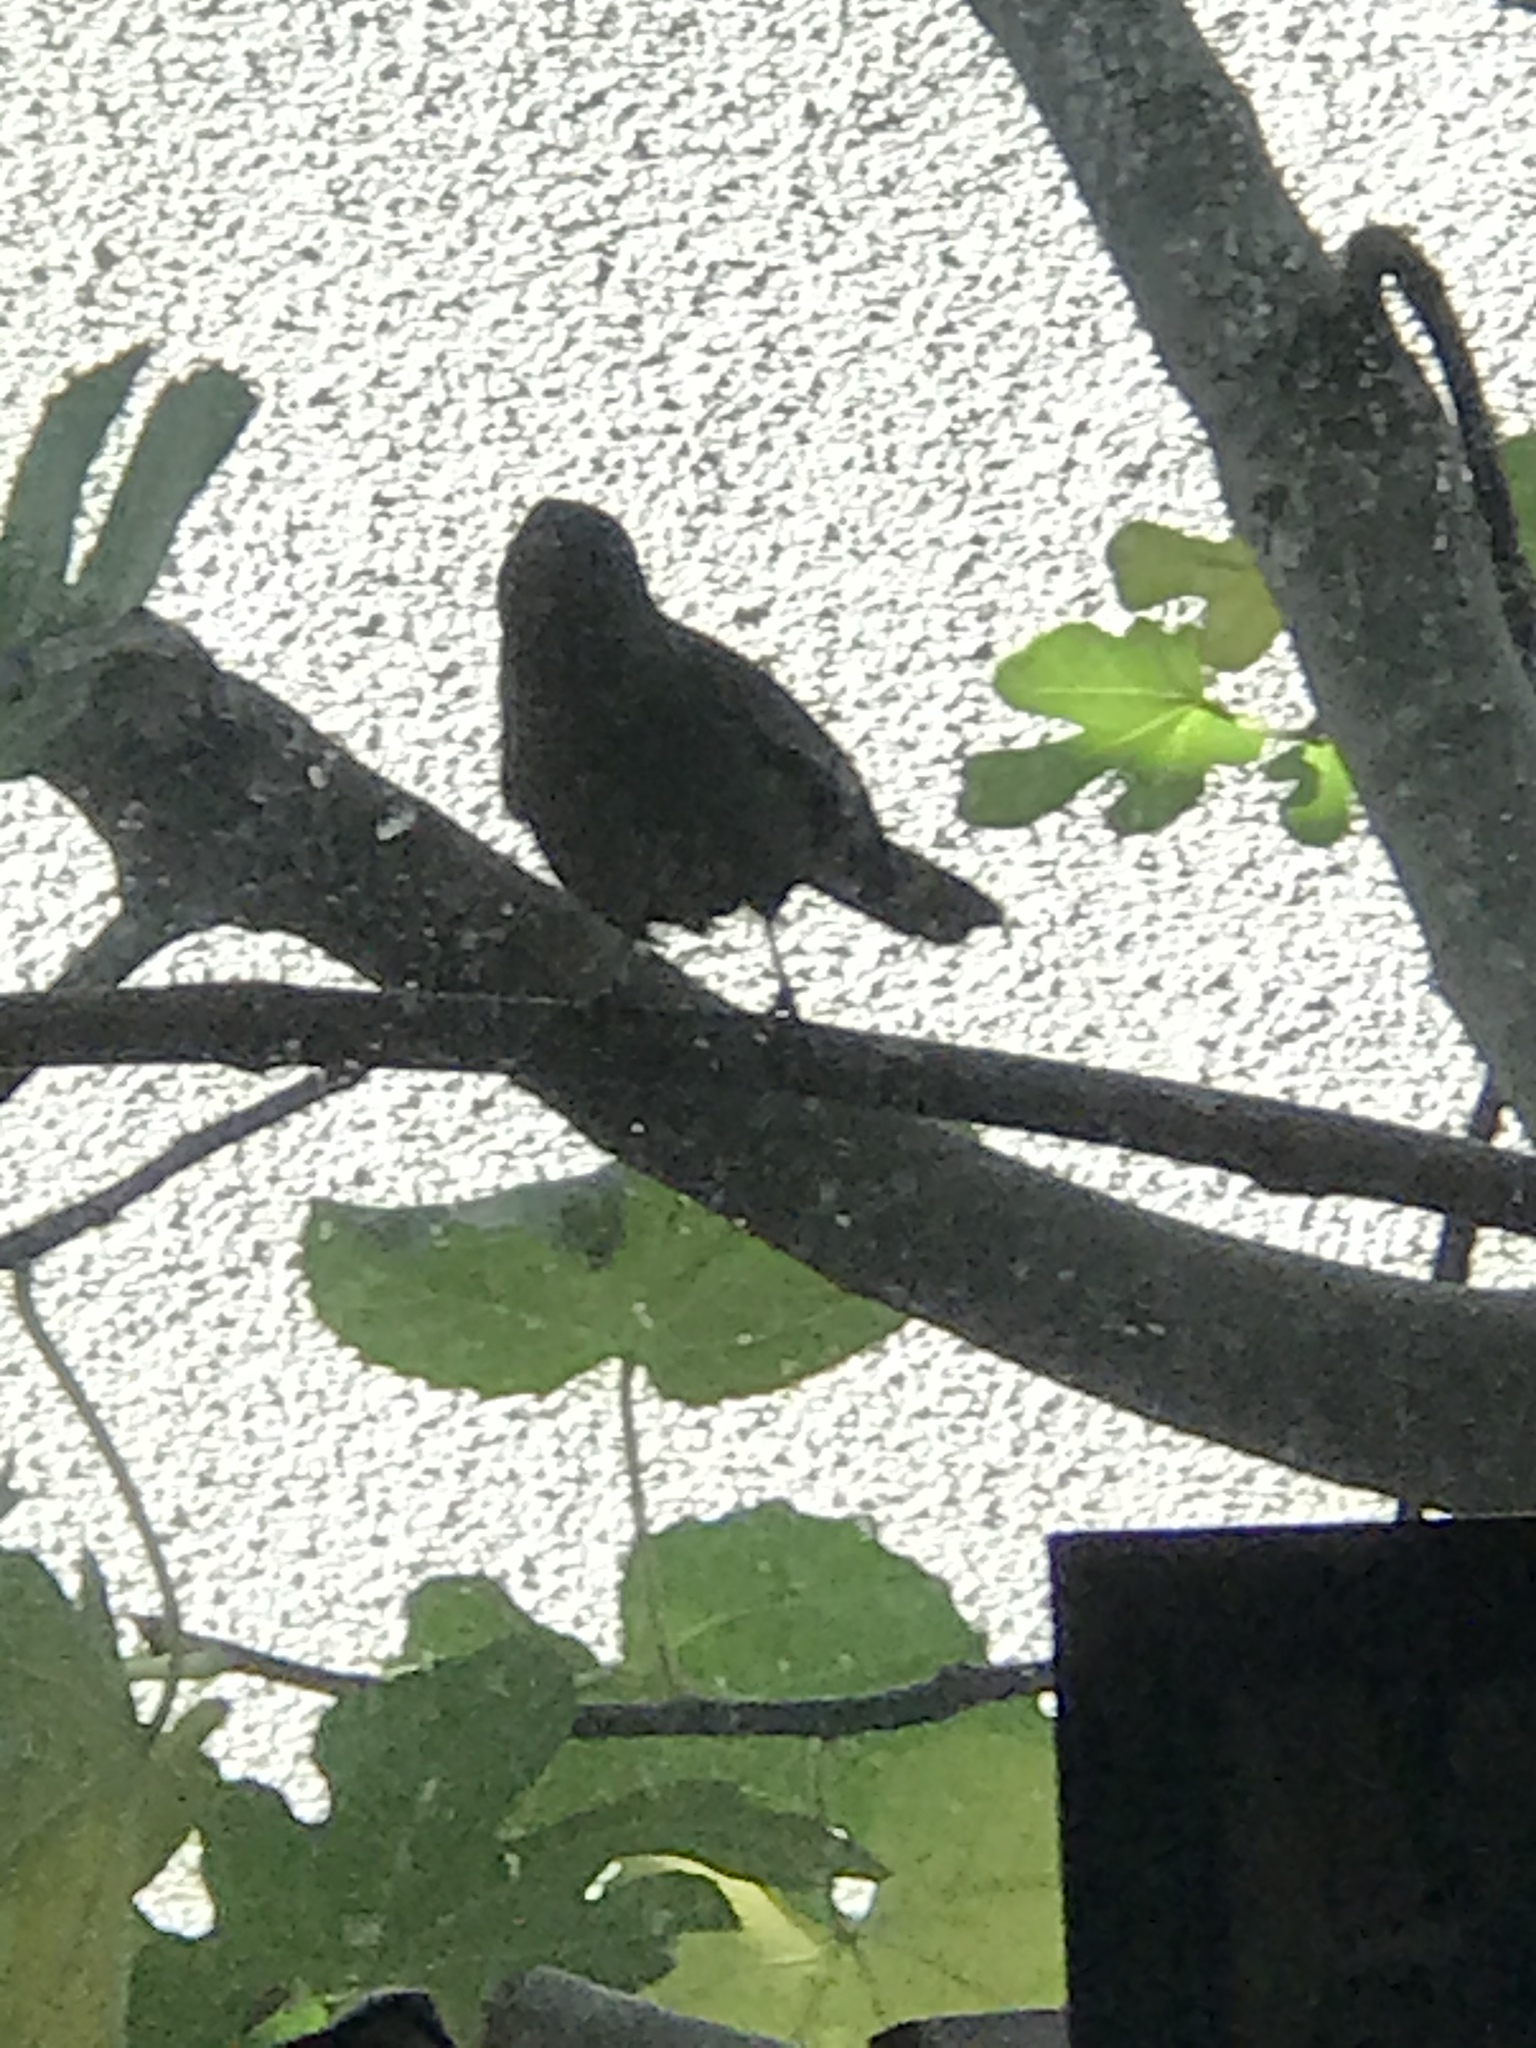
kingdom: Animalia
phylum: Chordata
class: Aves
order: Passeriformes
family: Passerellidae
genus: Melozone
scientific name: Melozone crissalis
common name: California towhee
